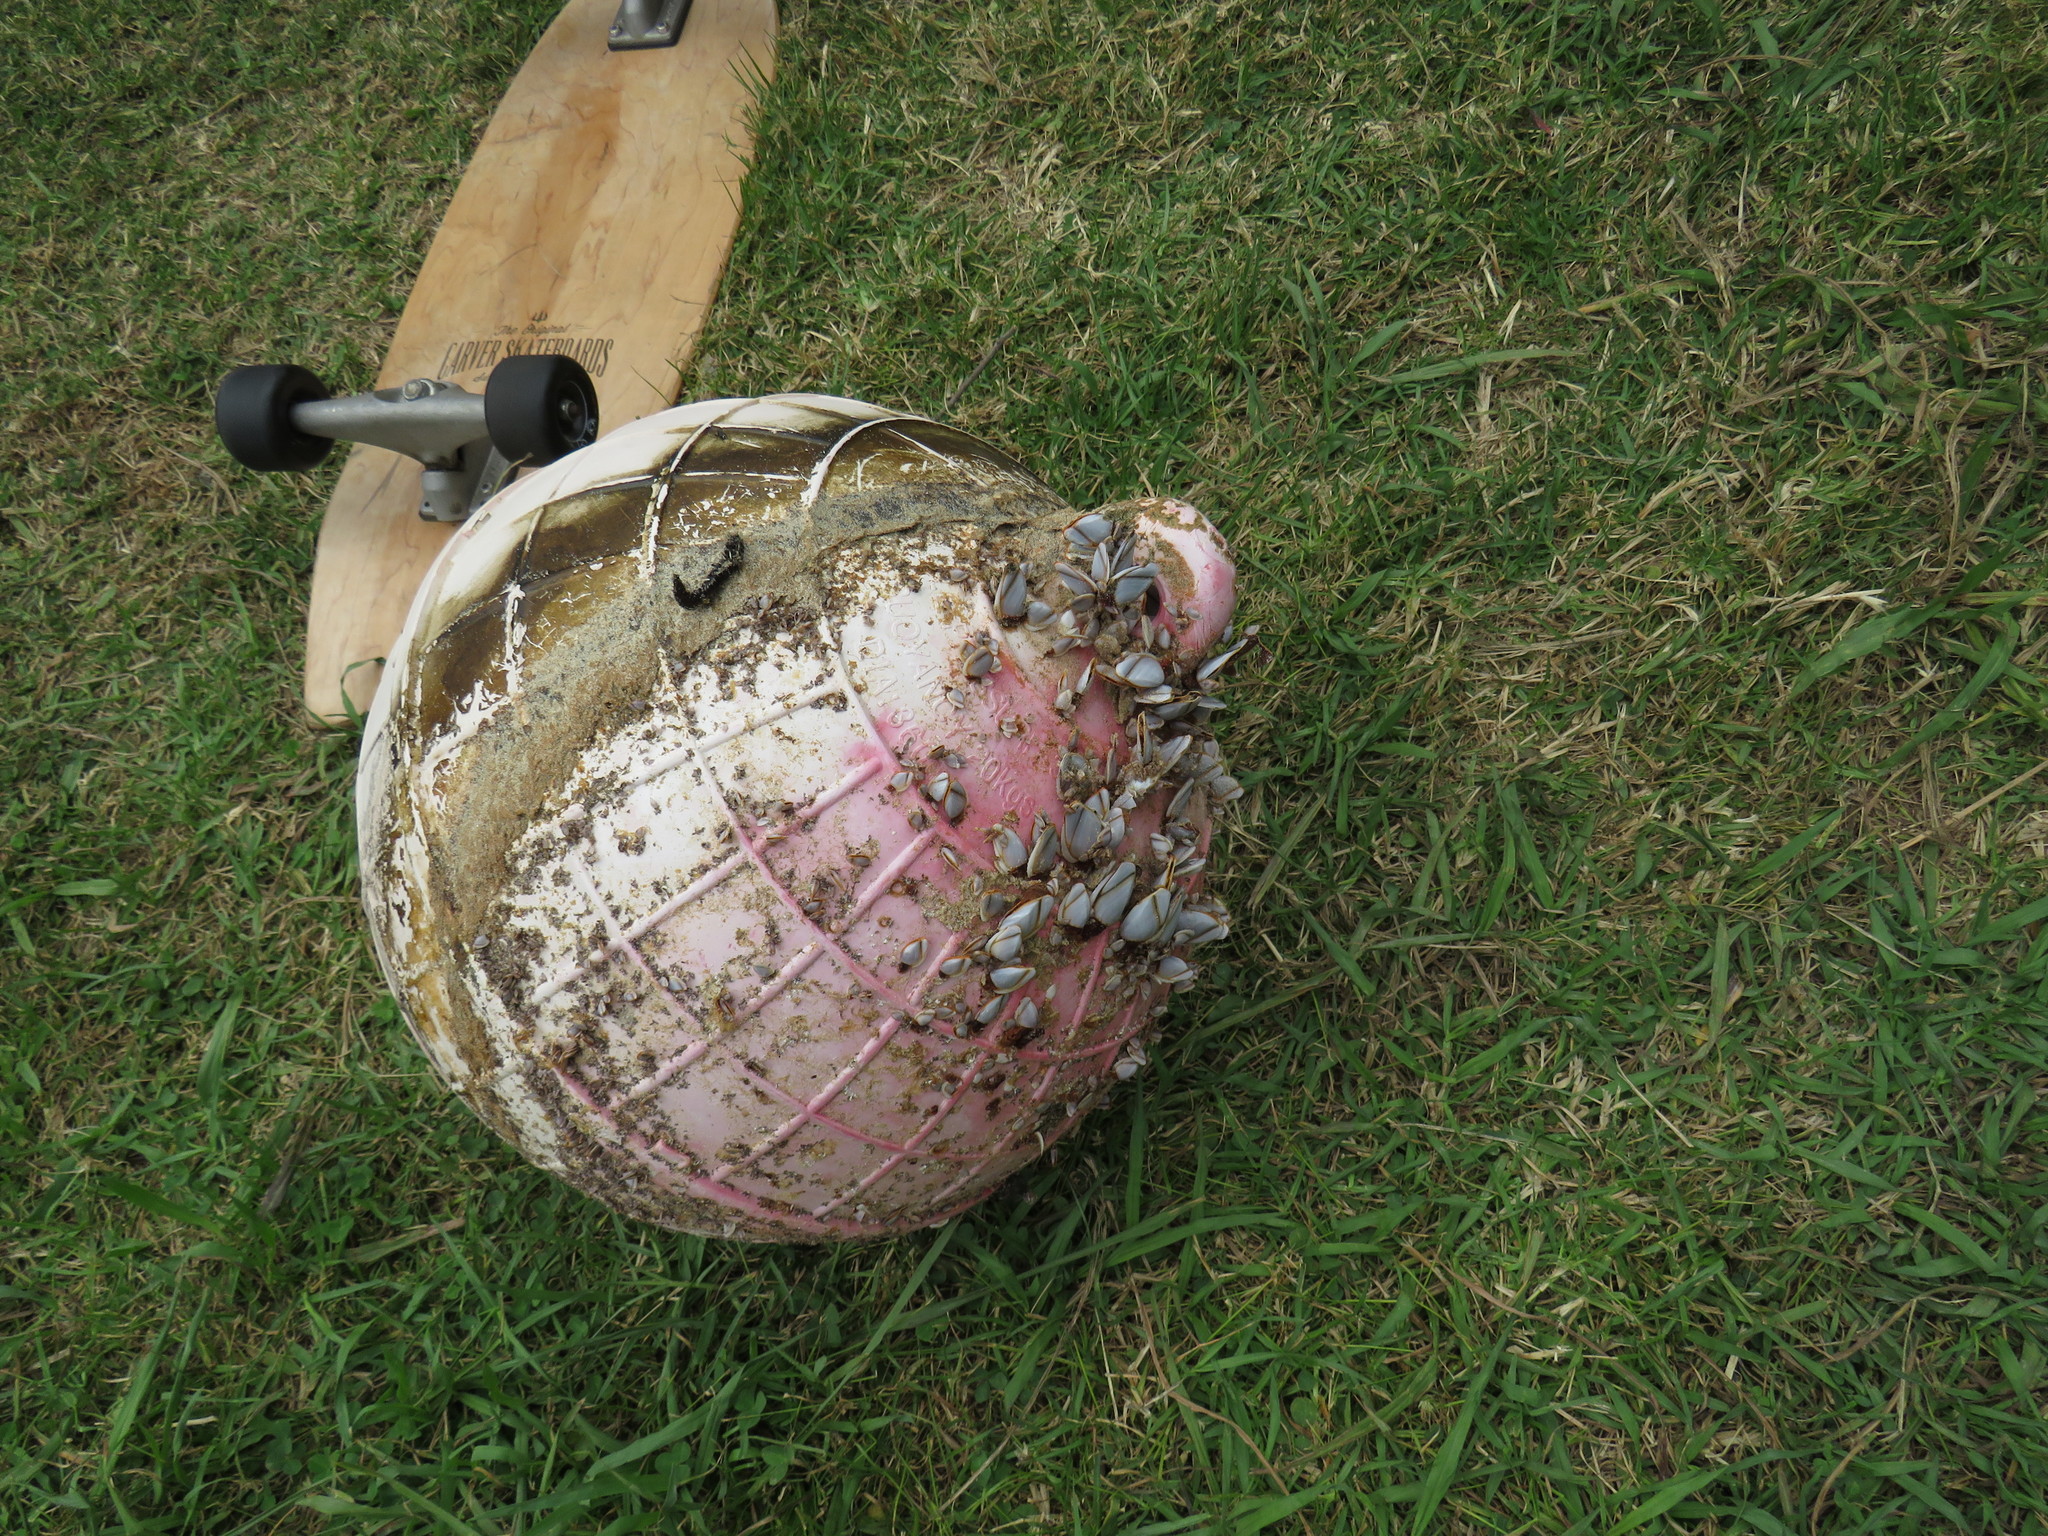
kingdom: Animalia
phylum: Arthropoda
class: Maxillopoda
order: Pedunculata
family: Lepadidae
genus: Lepas
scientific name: Lepas anatifera
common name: Common goose barnacle
